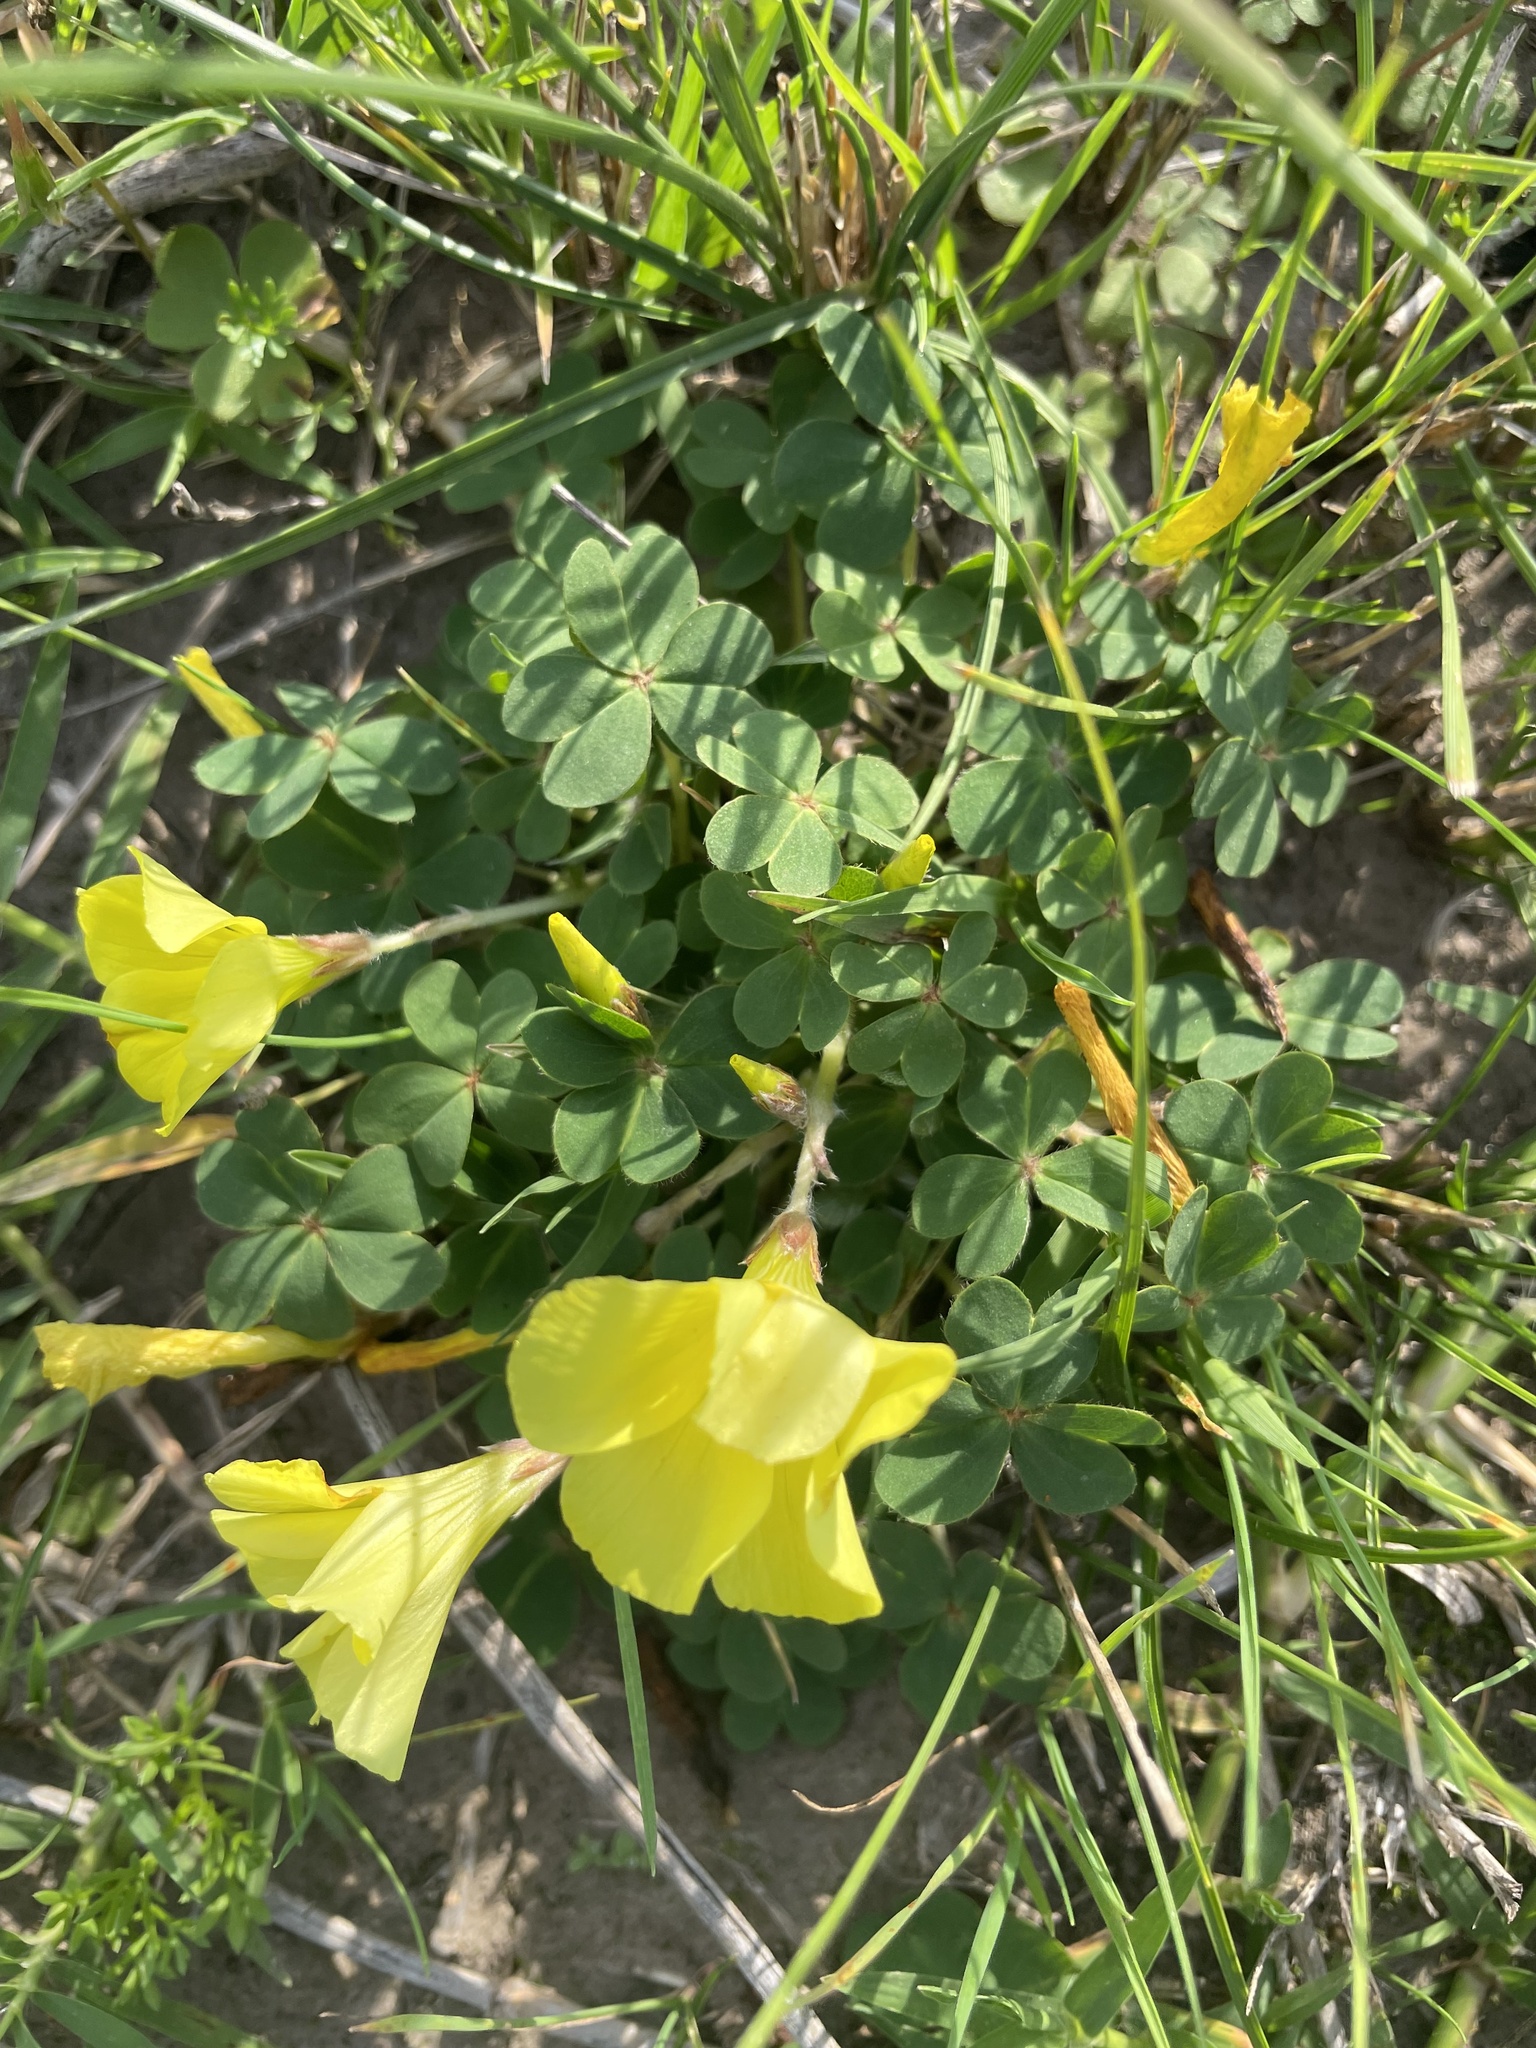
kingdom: Plantae
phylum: Tracheophyta
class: Magnoliopsida
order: Oxalidales
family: Oxalidaceae
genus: Oxalis
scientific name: Oxalis sellowiana
